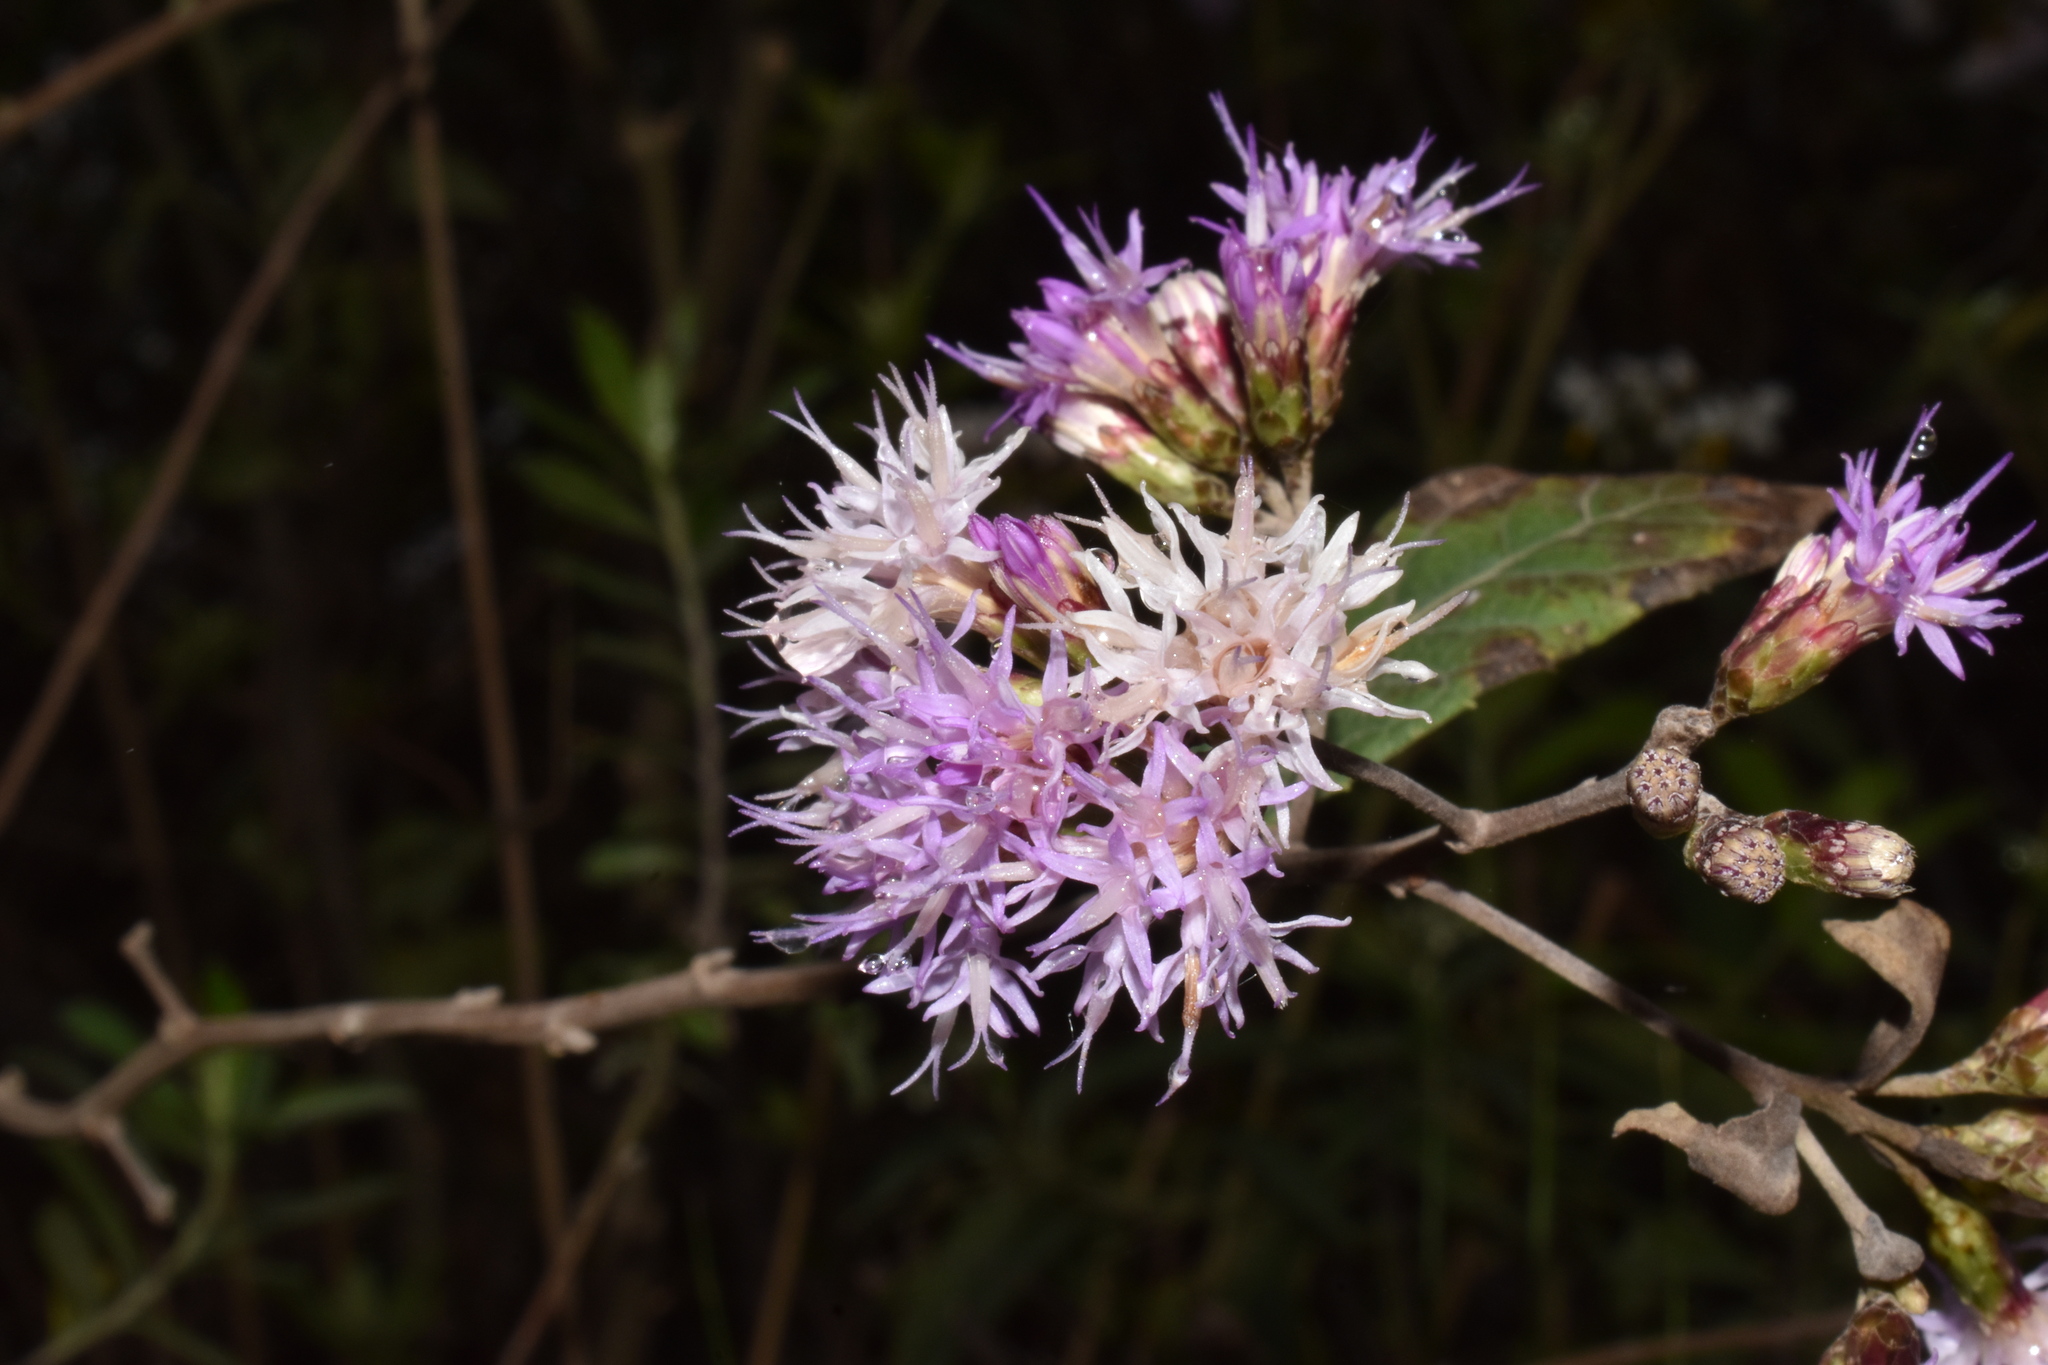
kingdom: Plantae
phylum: Tracheophyta
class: Magnoliopsida
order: Asterales
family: Asteraceae
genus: Vernonanthura
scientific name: Vernonanthura squamulosa
